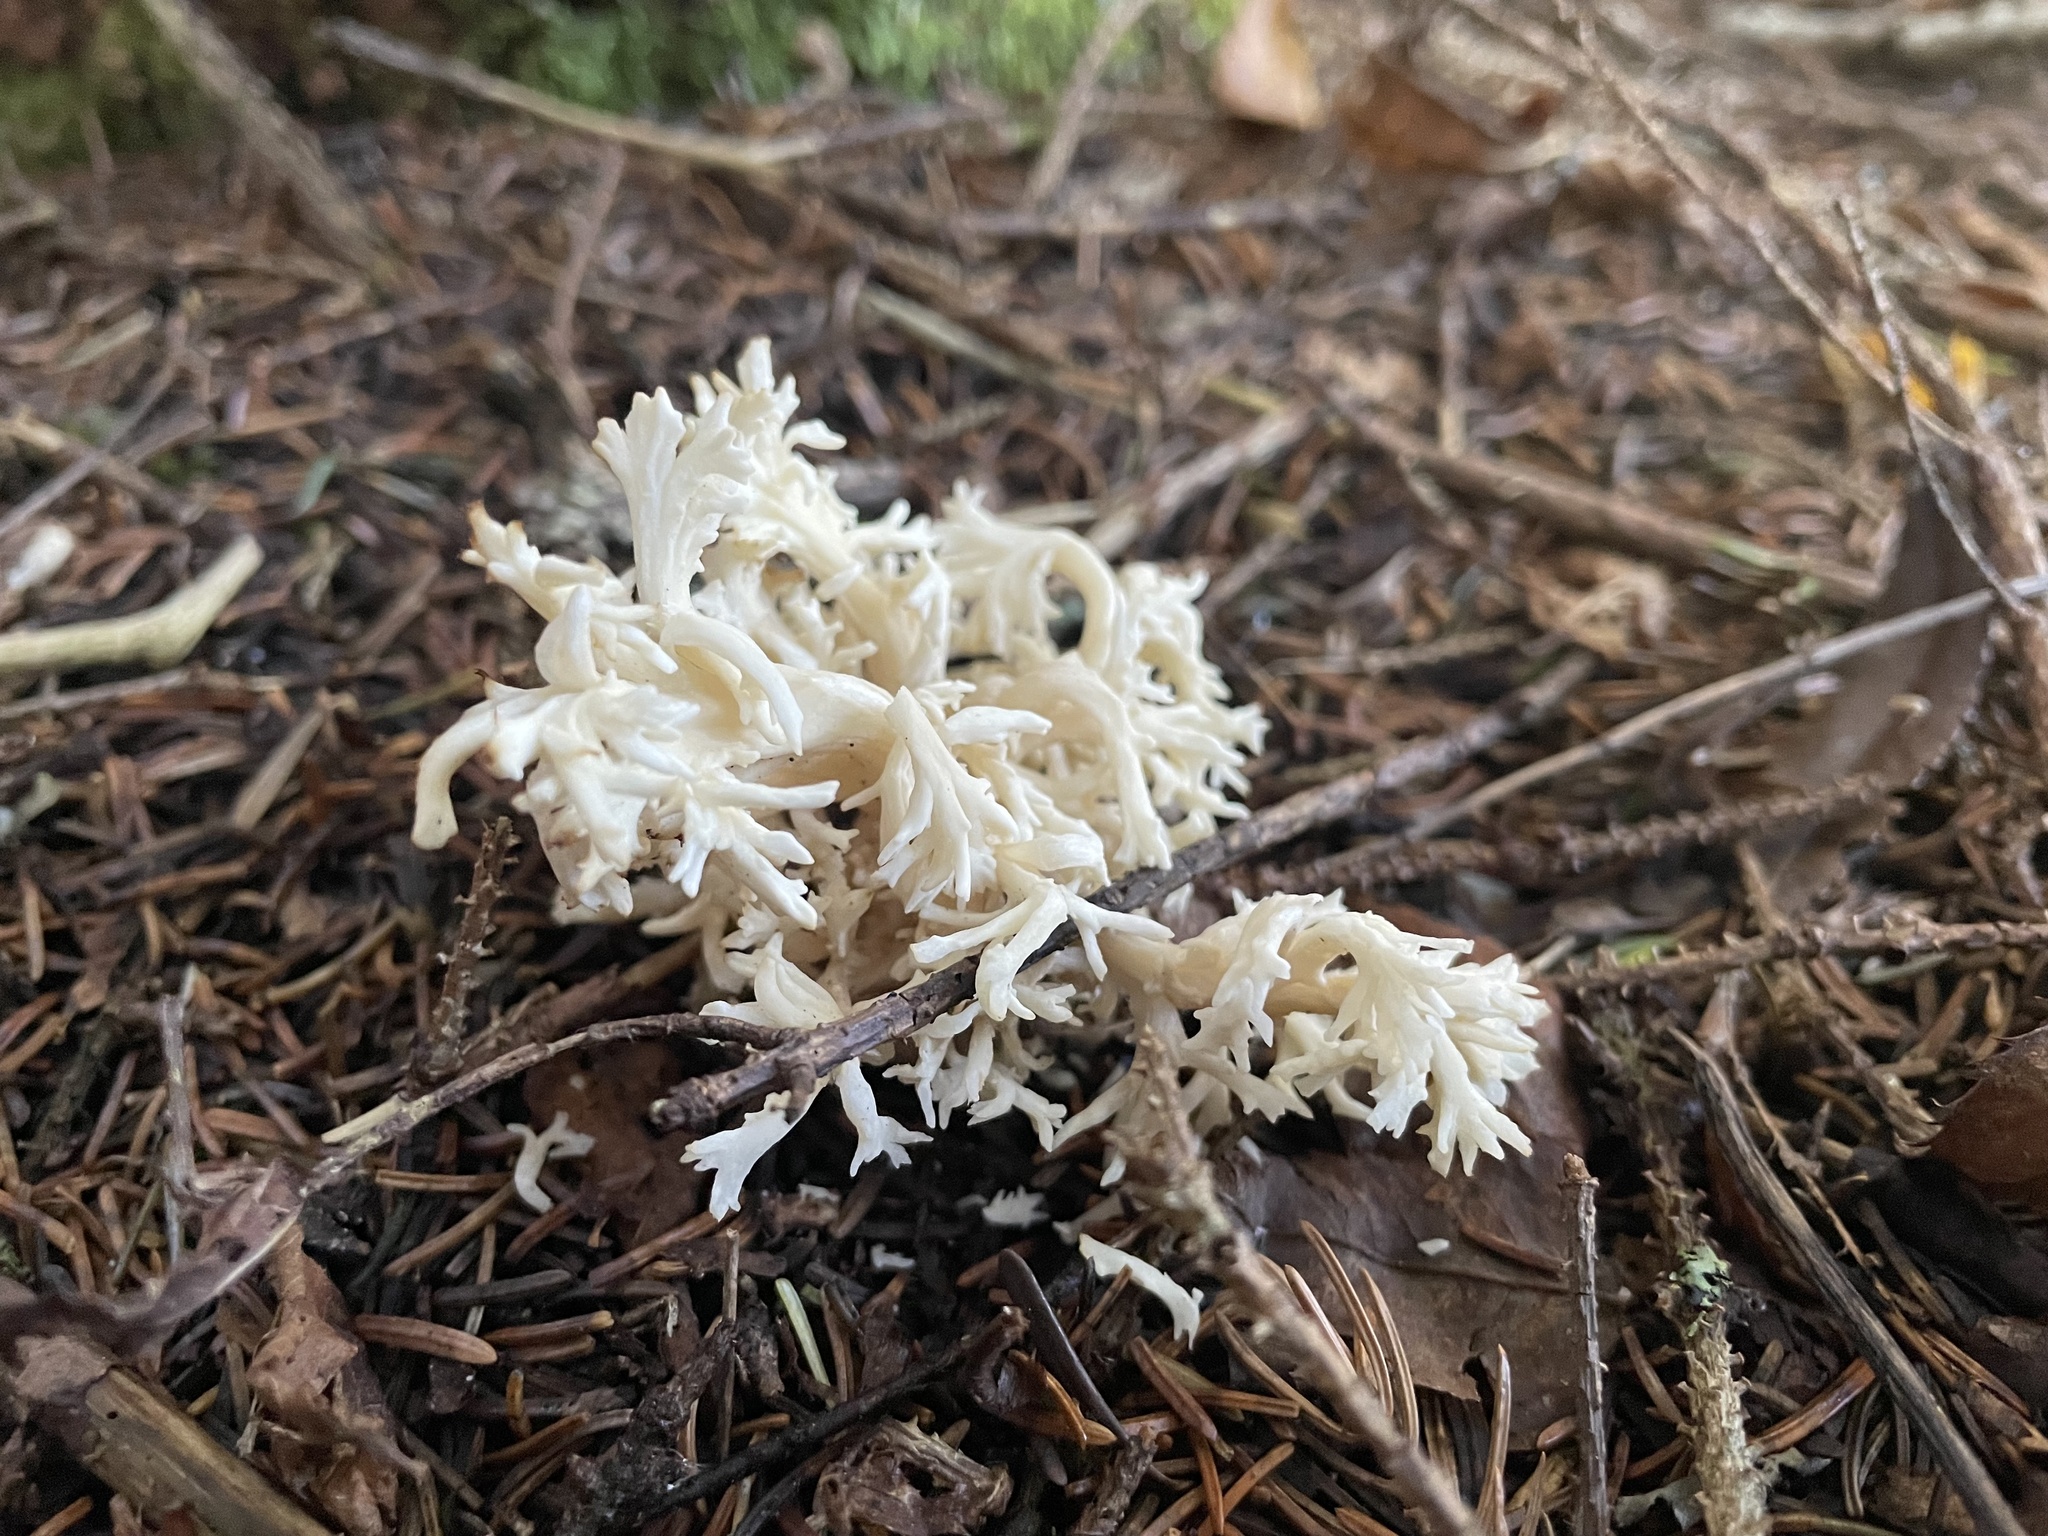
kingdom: Fungi
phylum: Basidiomycota
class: Agaricomycetes
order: Cantharellales
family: Hydnaceae
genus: Clavulina
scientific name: Clavulina cinerea
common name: Grey coral
